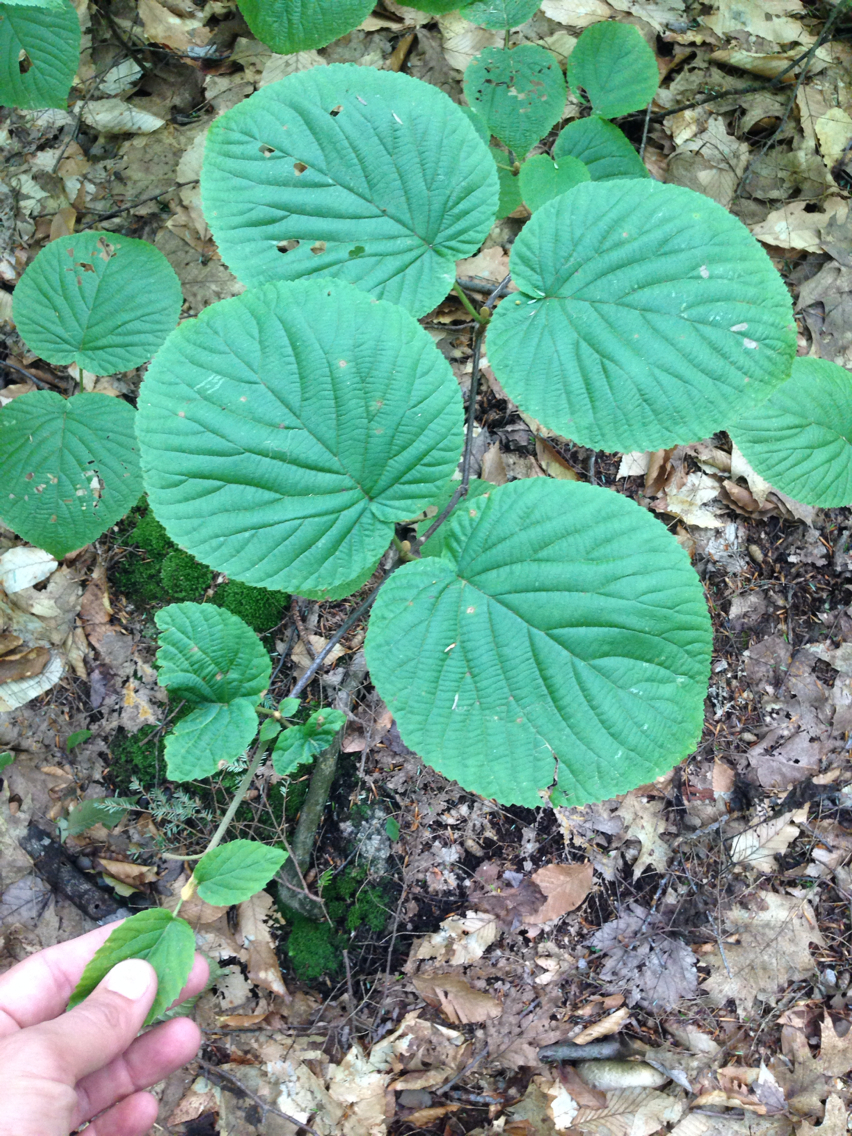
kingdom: Plantae
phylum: Tracheophyta
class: Magnoliopsida
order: Dipsacales
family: Viburnaceae
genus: Viburnum
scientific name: Viburnum lantanoides
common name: Hobblebush
